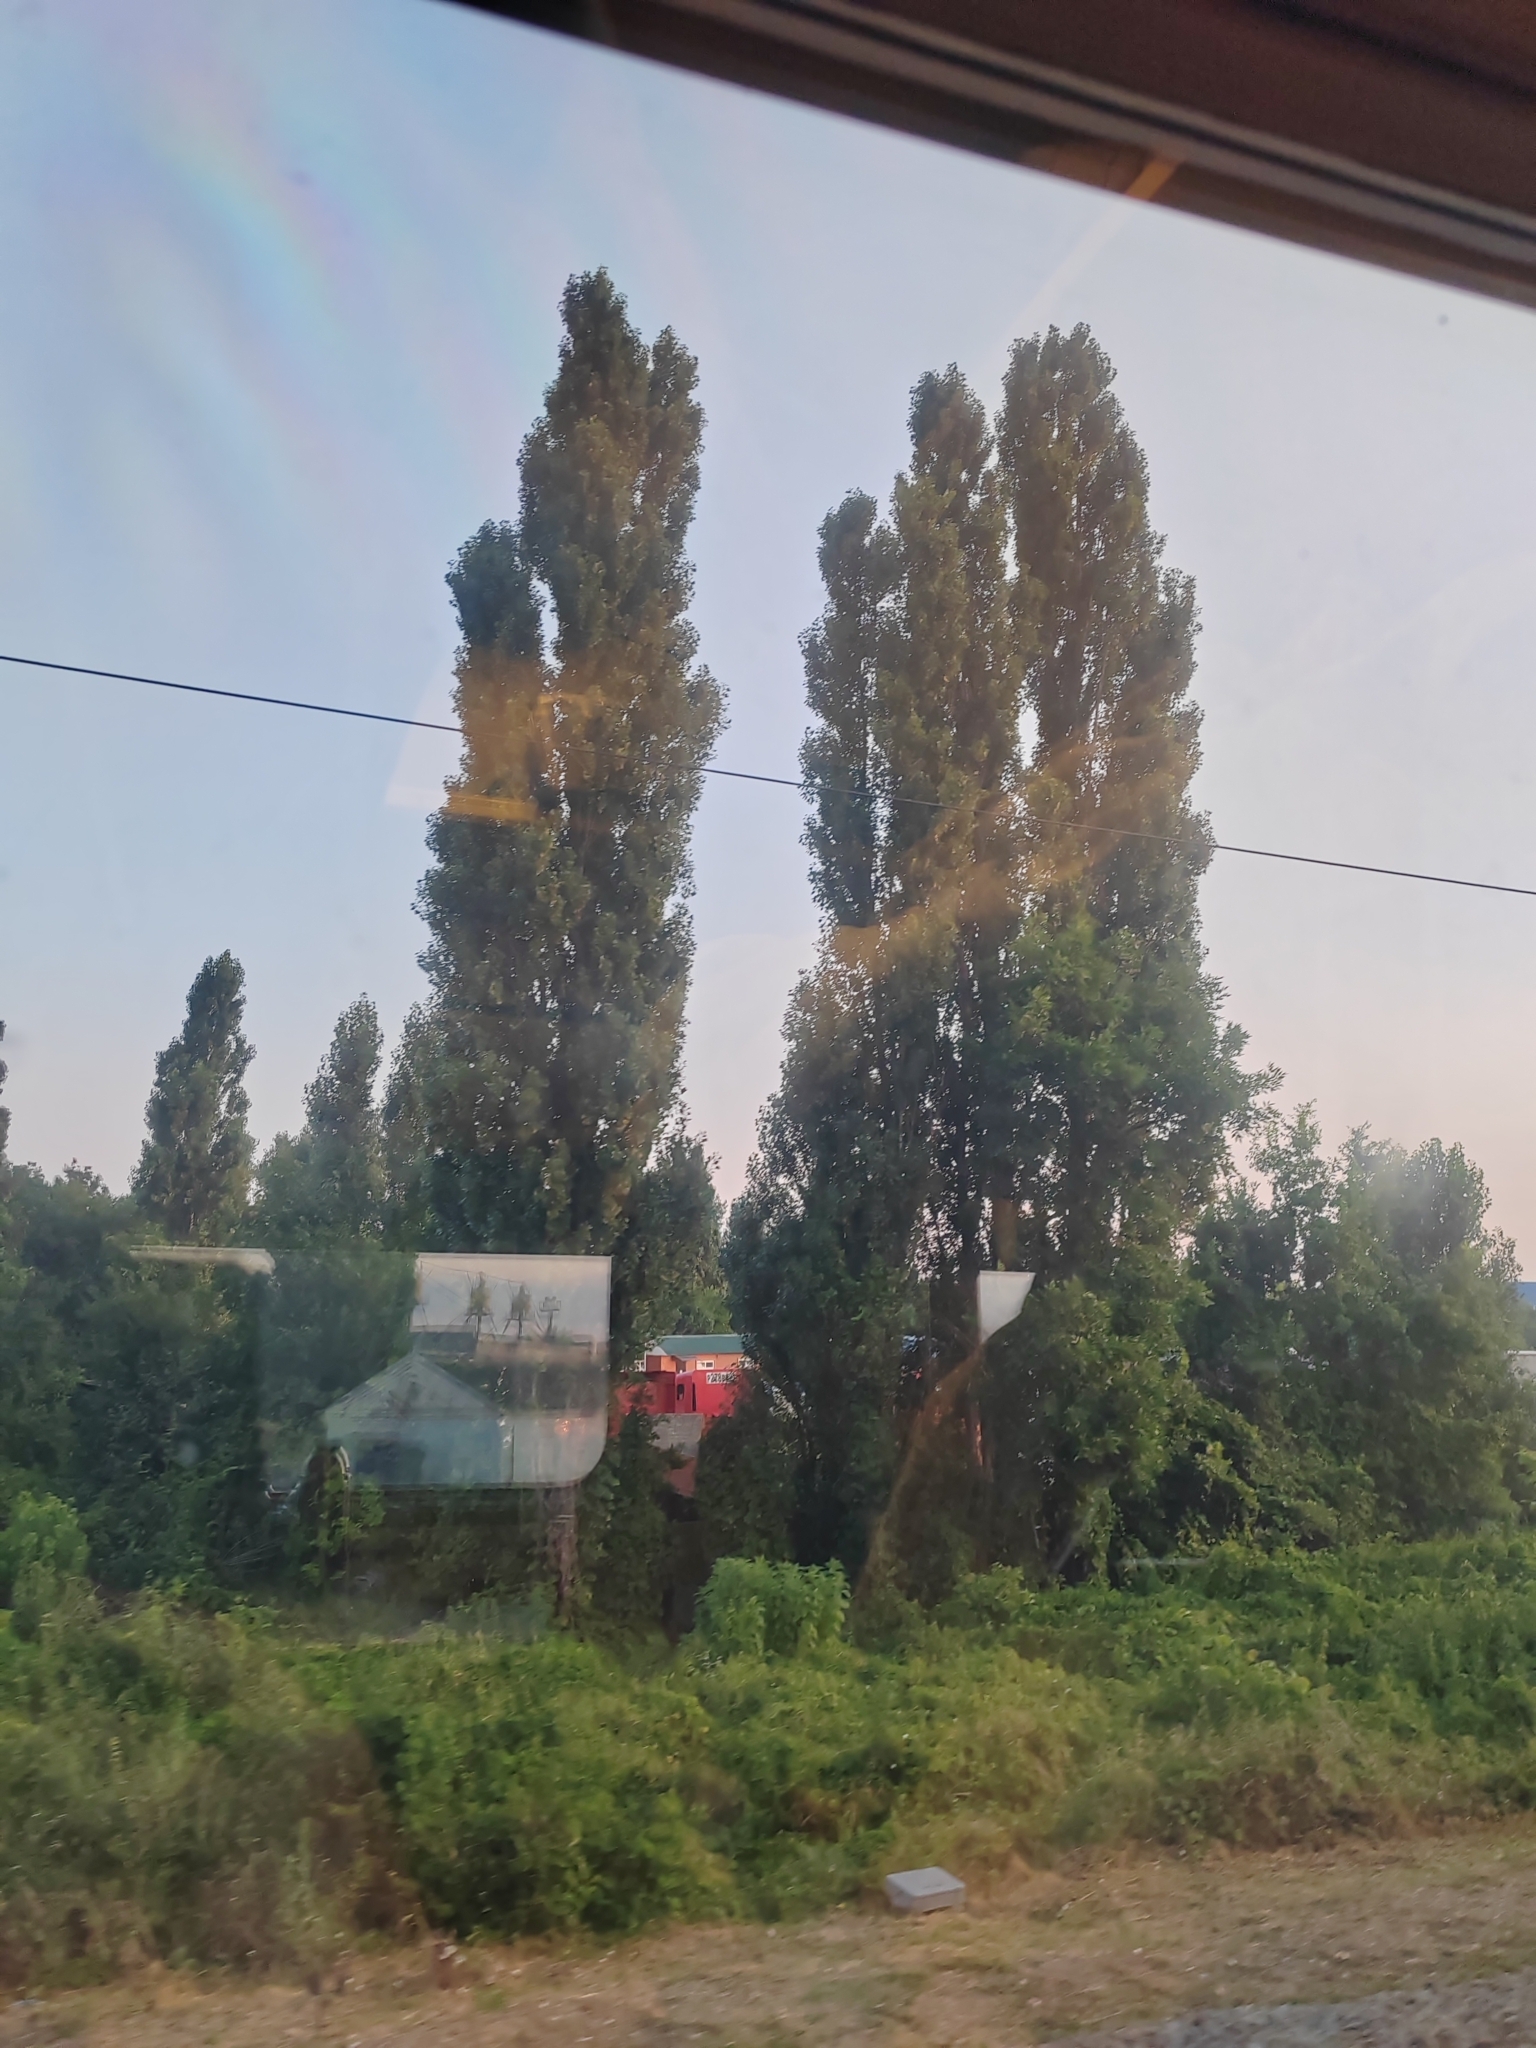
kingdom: Plantae
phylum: Tracheophyta
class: Magnoliopsida
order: Malpighiales
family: Salicaceae
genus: Populus
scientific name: Populus nigra
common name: Black poplar
